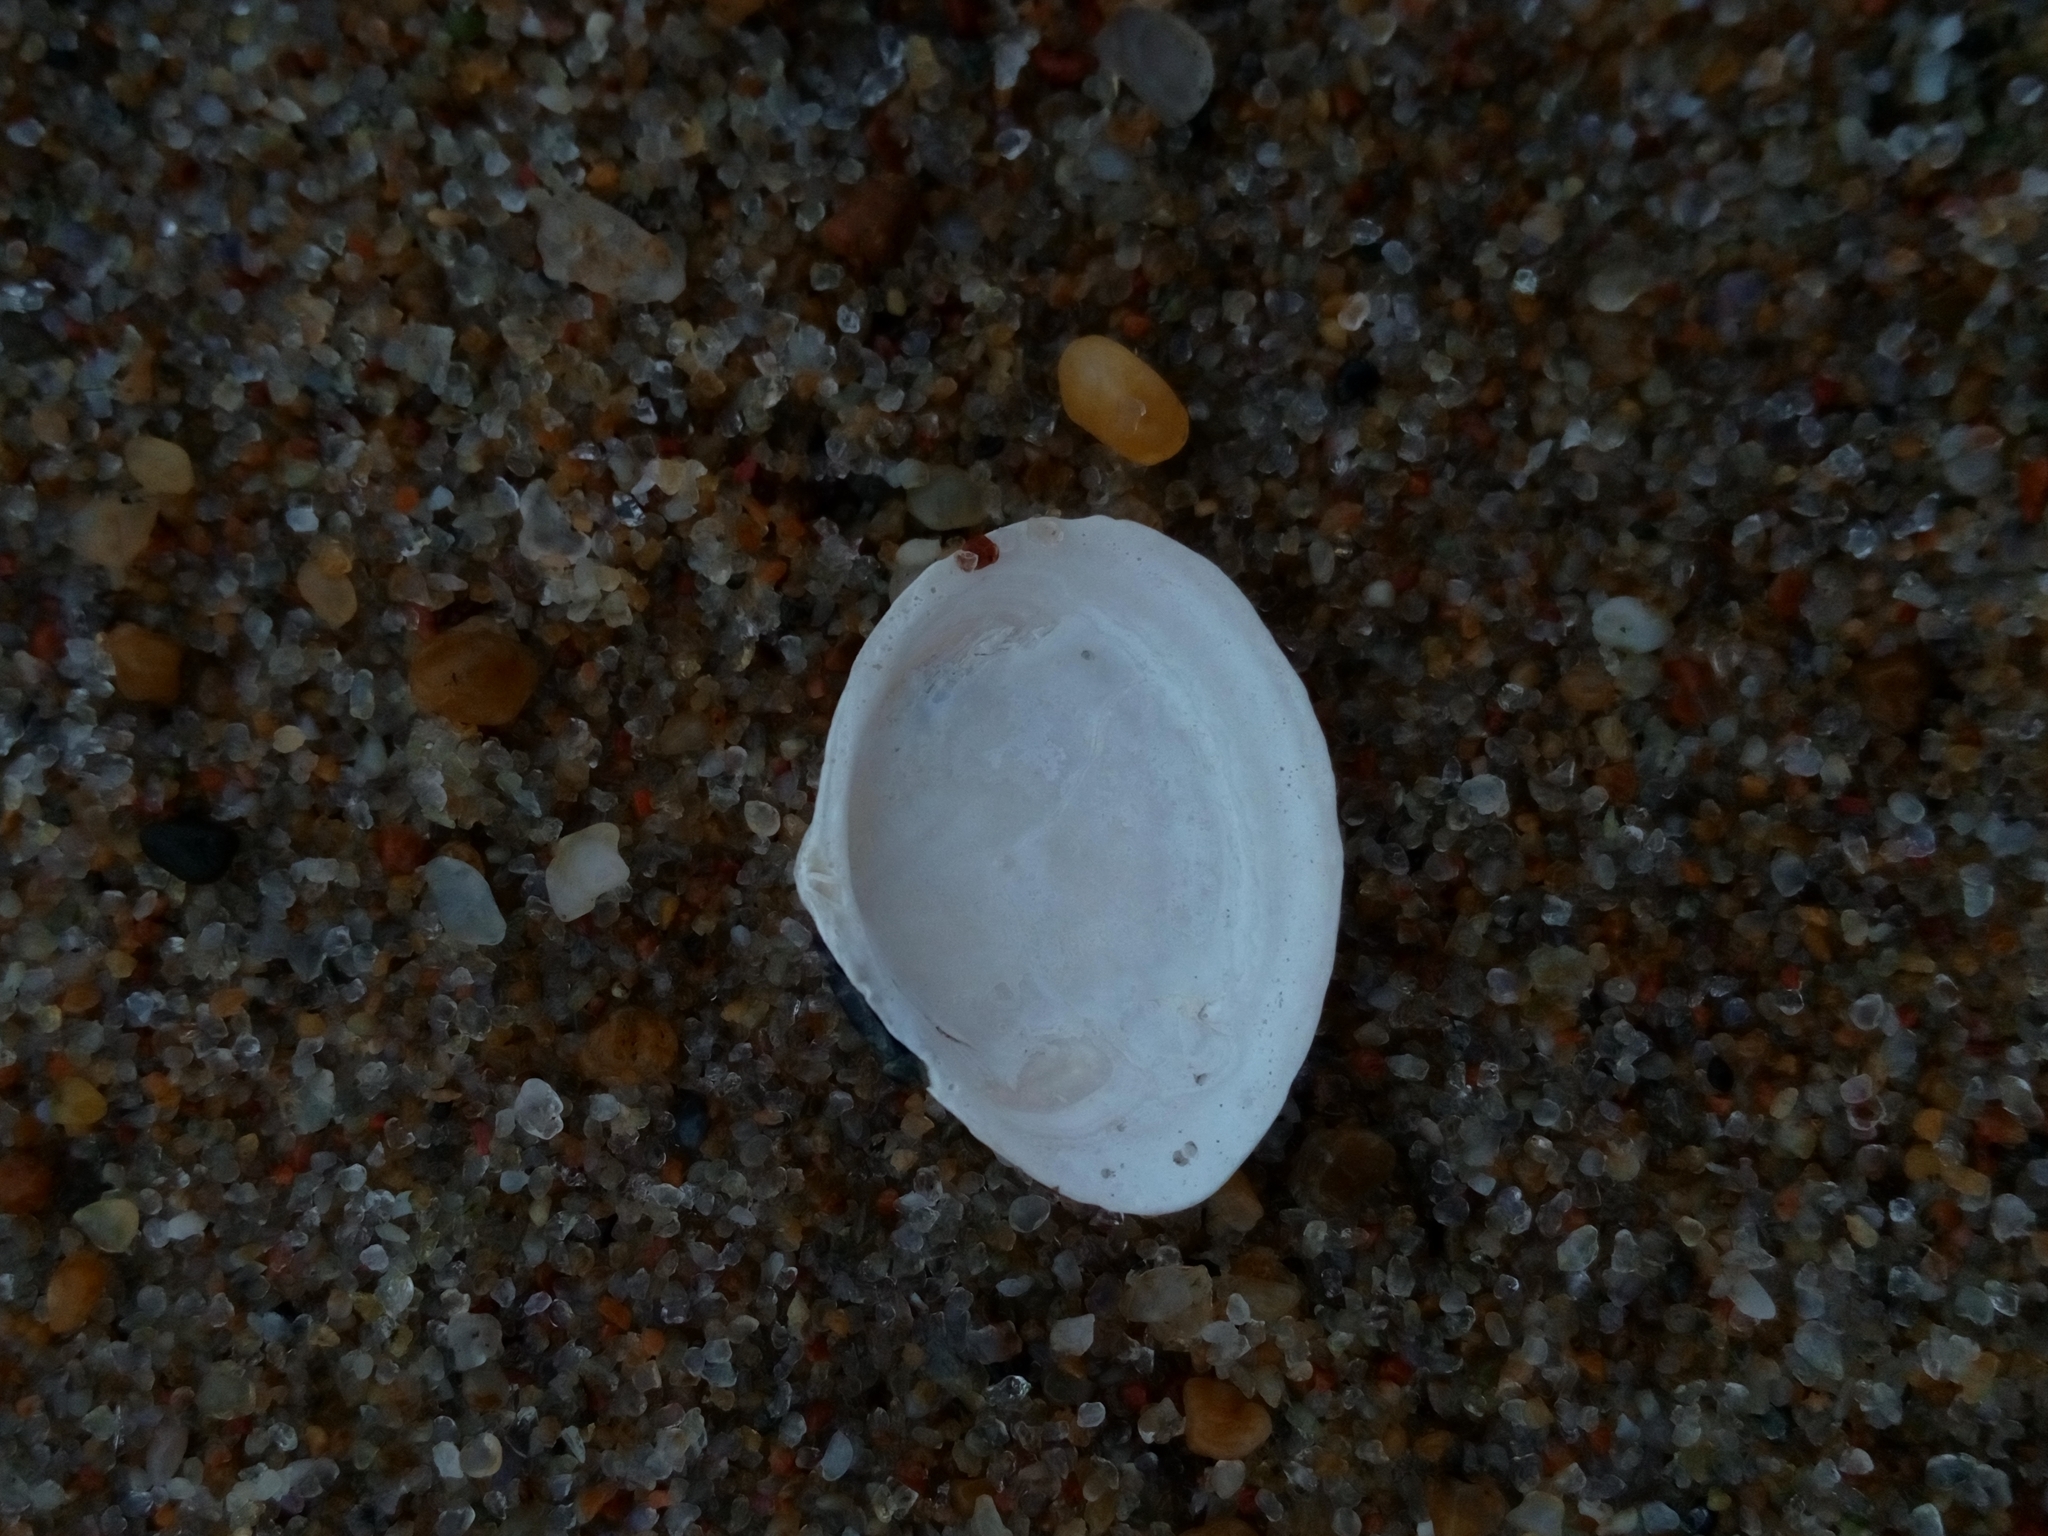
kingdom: Animalia
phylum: Mollusca
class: Bivalvia
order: Cardiida
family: Tellinidae
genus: Macoma
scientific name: Macoma balthica
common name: Baltic tellin
